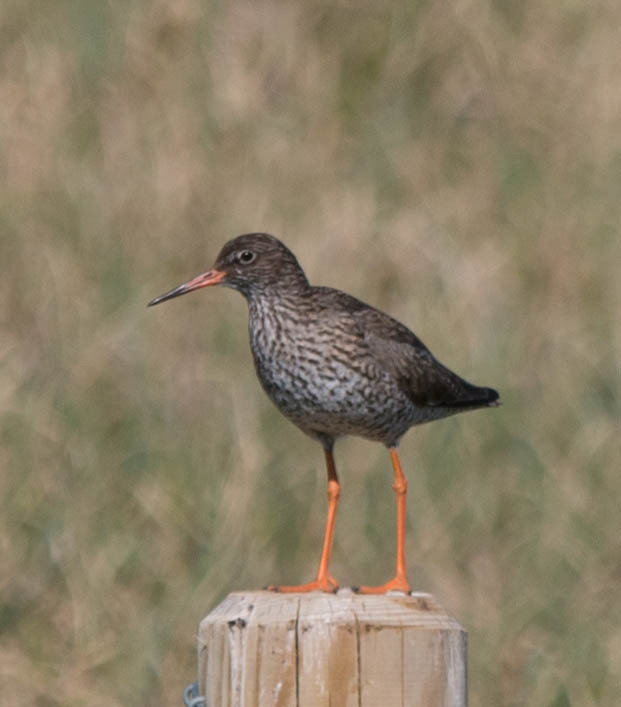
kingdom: Animalia
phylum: Chordata
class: Aves
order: Charadriiformes
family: Scolopacidae
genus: Tringa
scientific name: Tringa totanus
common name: Common redshank
